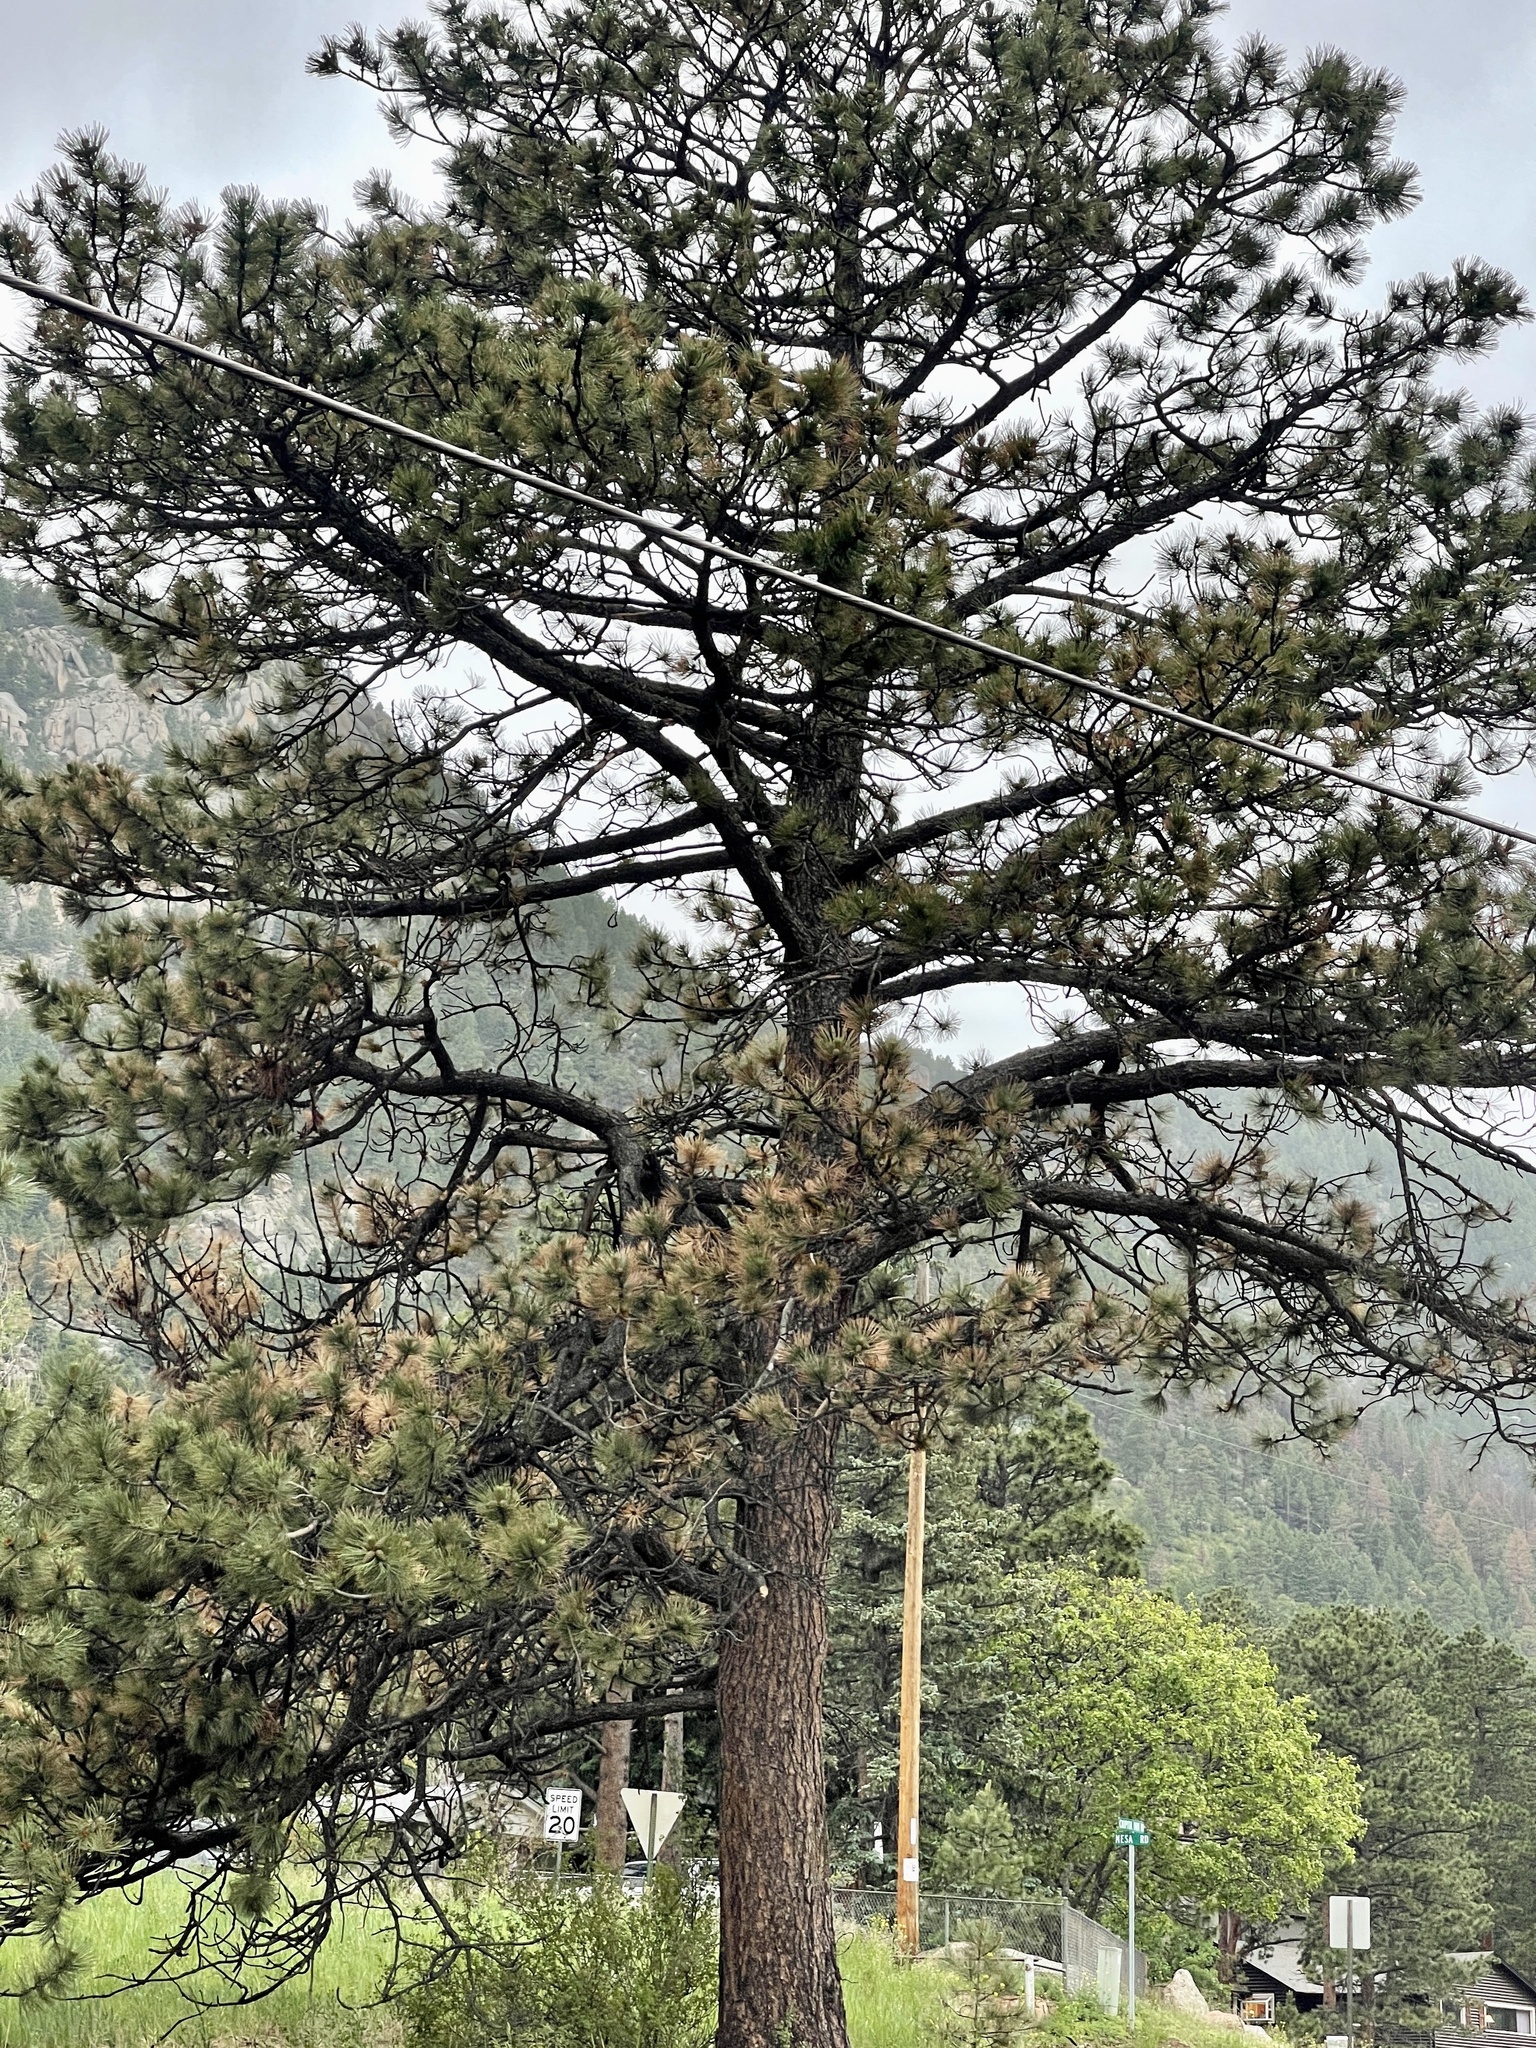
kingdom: Plantae
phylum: Tracheophyta
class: Pinopsida
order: Pinales
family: Pinaceae
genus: Pinus
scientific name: Pinus ponderosa
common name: Western yellow-pine
